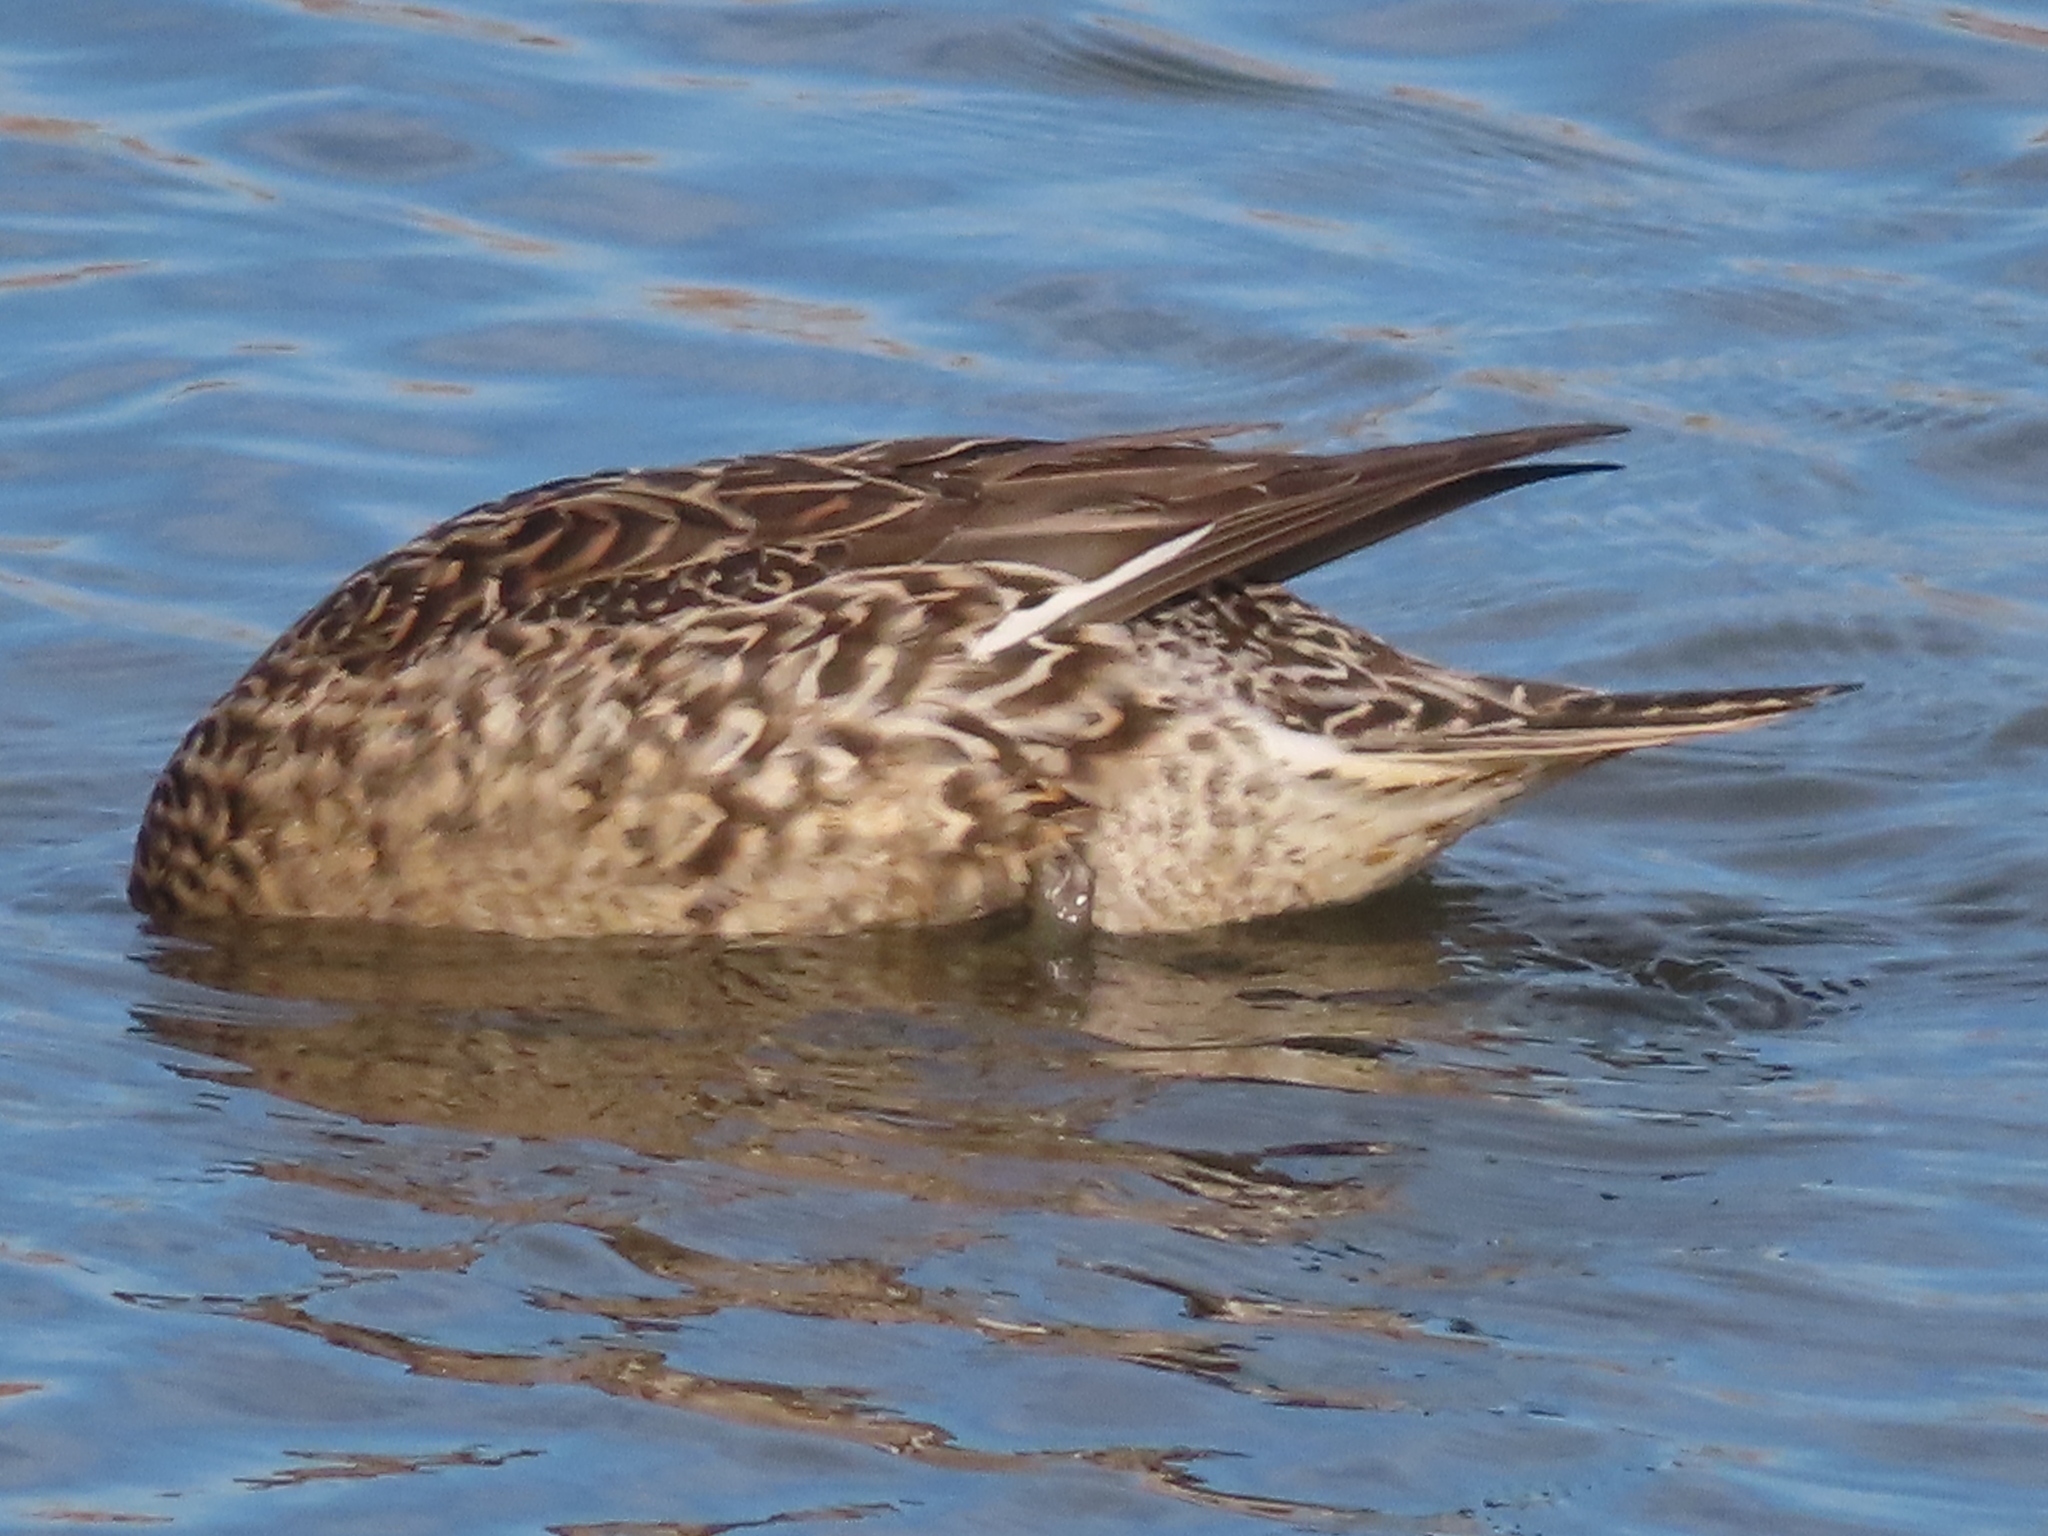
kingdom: Animalia
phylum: Chordata
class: Aves
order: Anseriformes
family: Anatidae
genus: Anas
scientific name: Anas acuta
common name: Northern pintail
